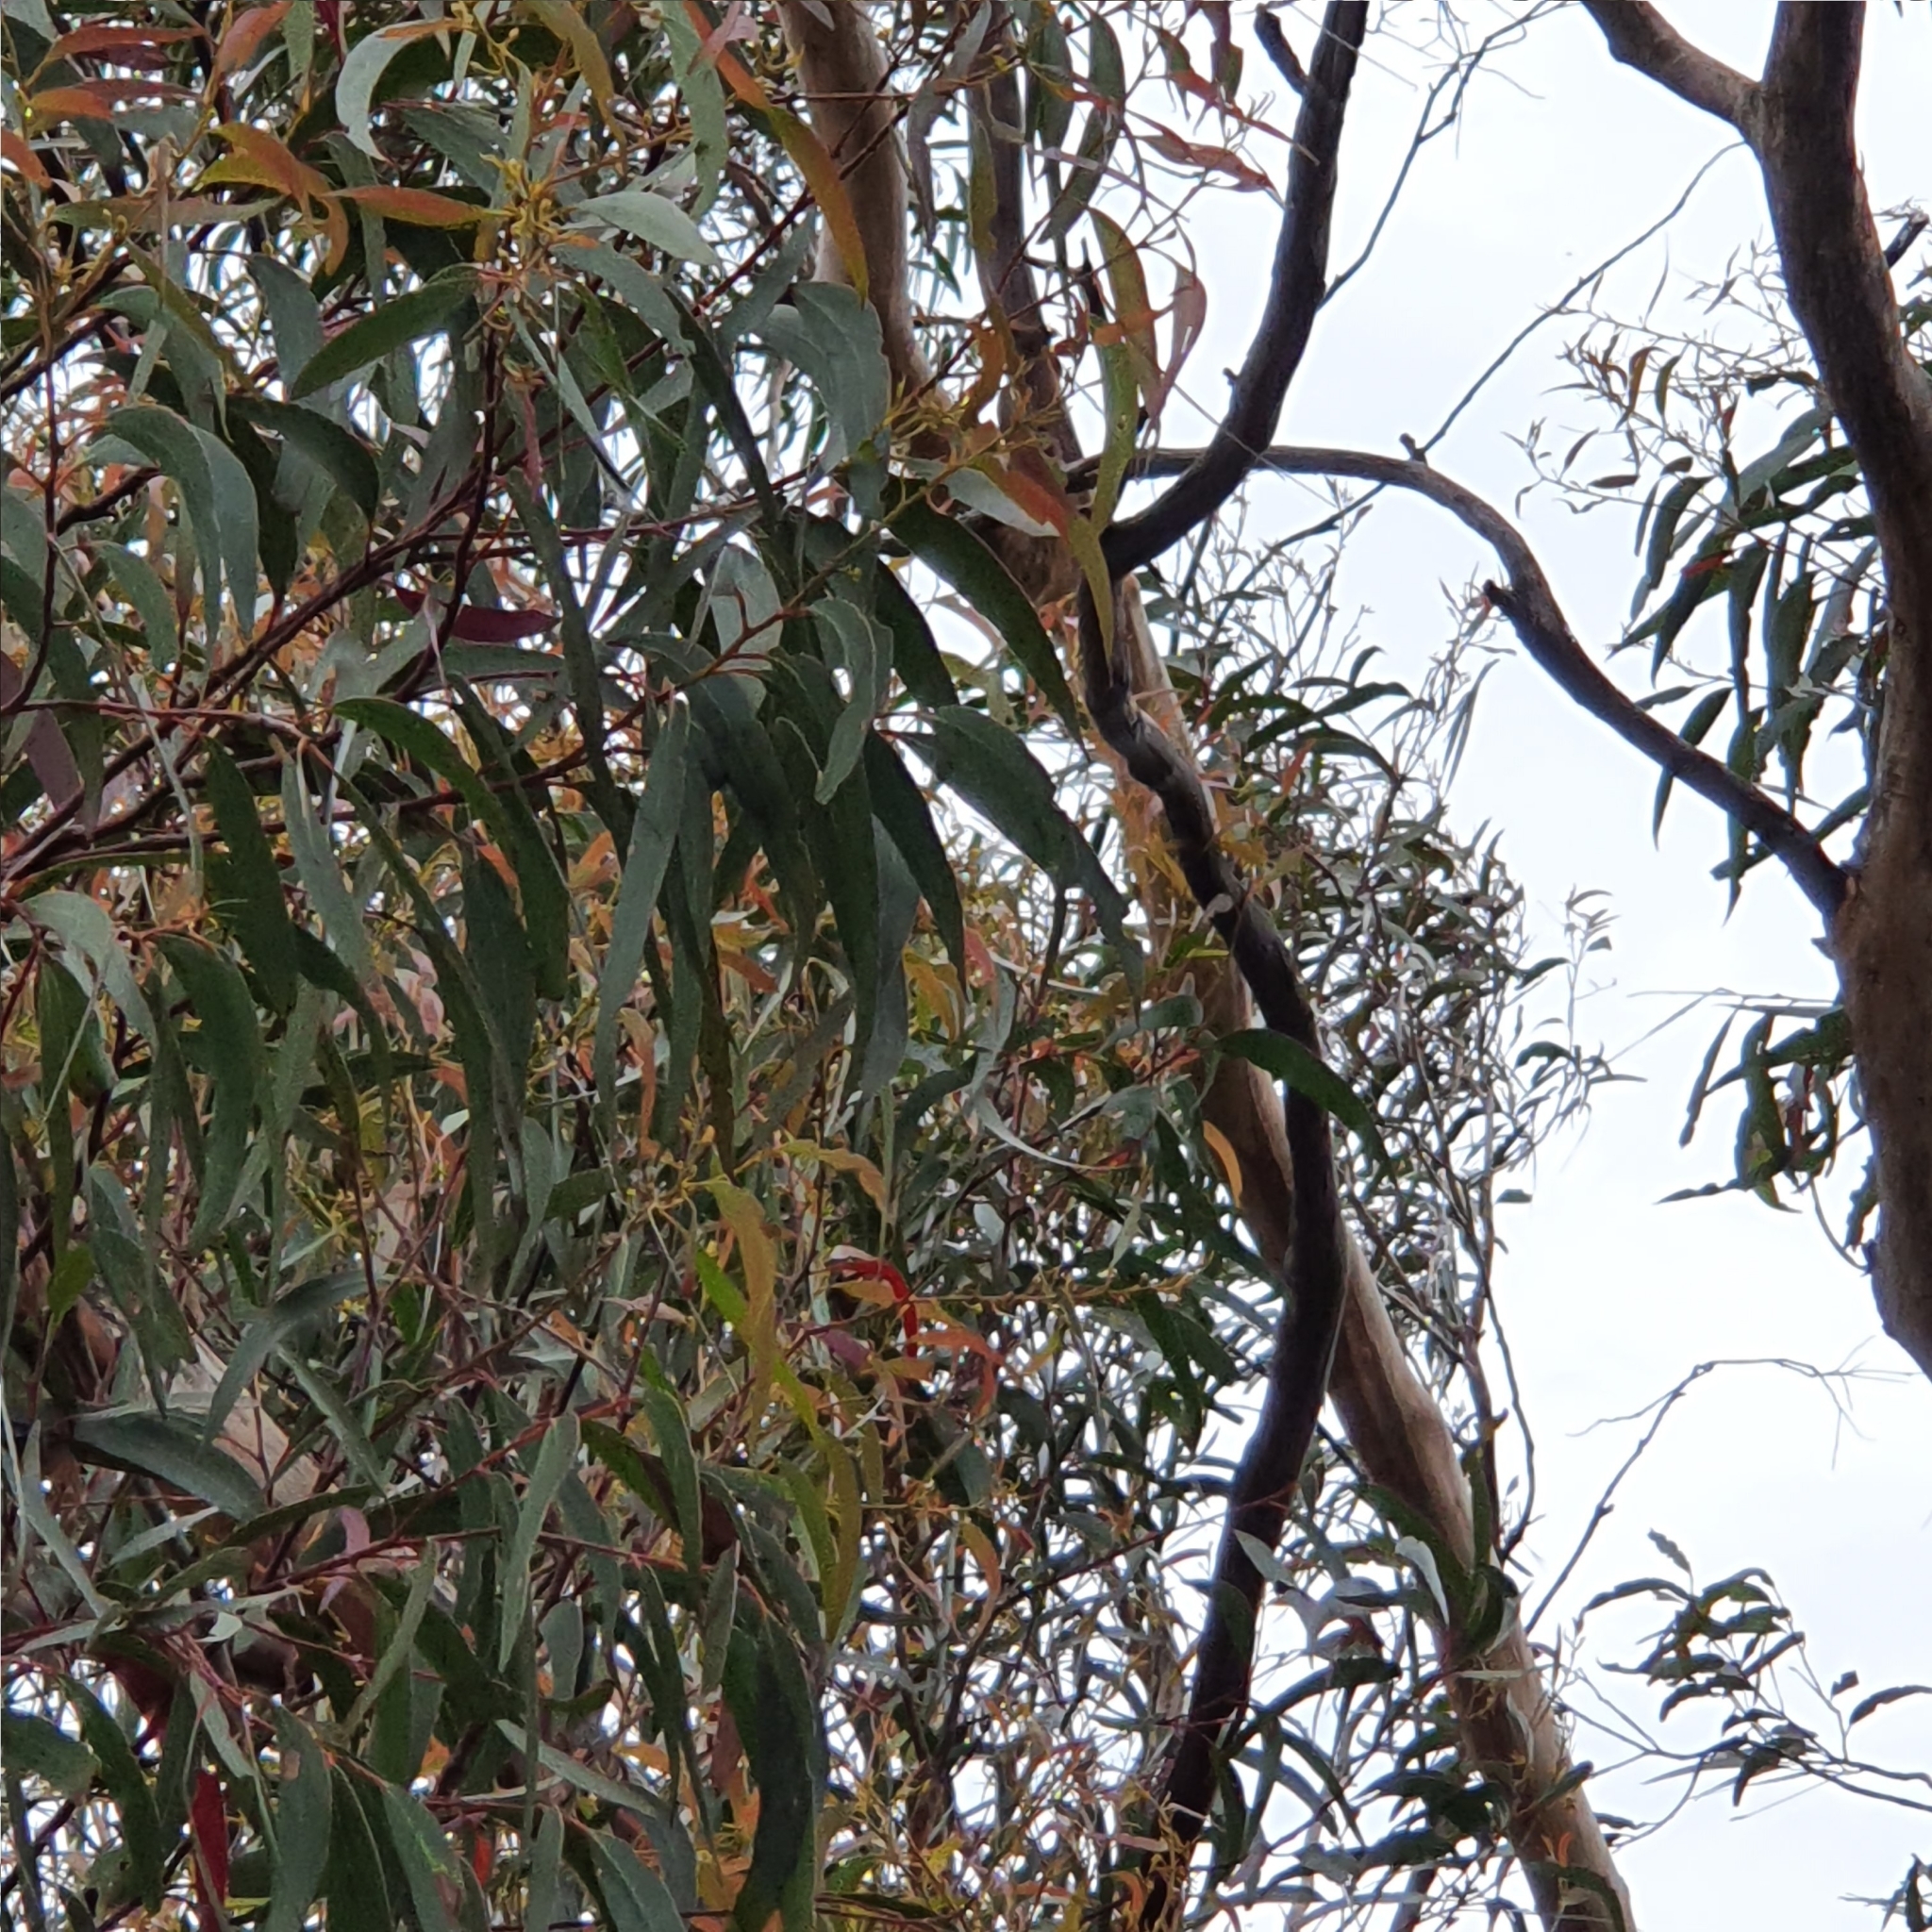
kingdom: Plantae
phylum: Tracheophyta
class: Magnoliopsida
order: Myrtales
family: Myrtaceae
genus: Eucalyptus
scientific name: Eucalyptus sieberi
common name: Black-ash
